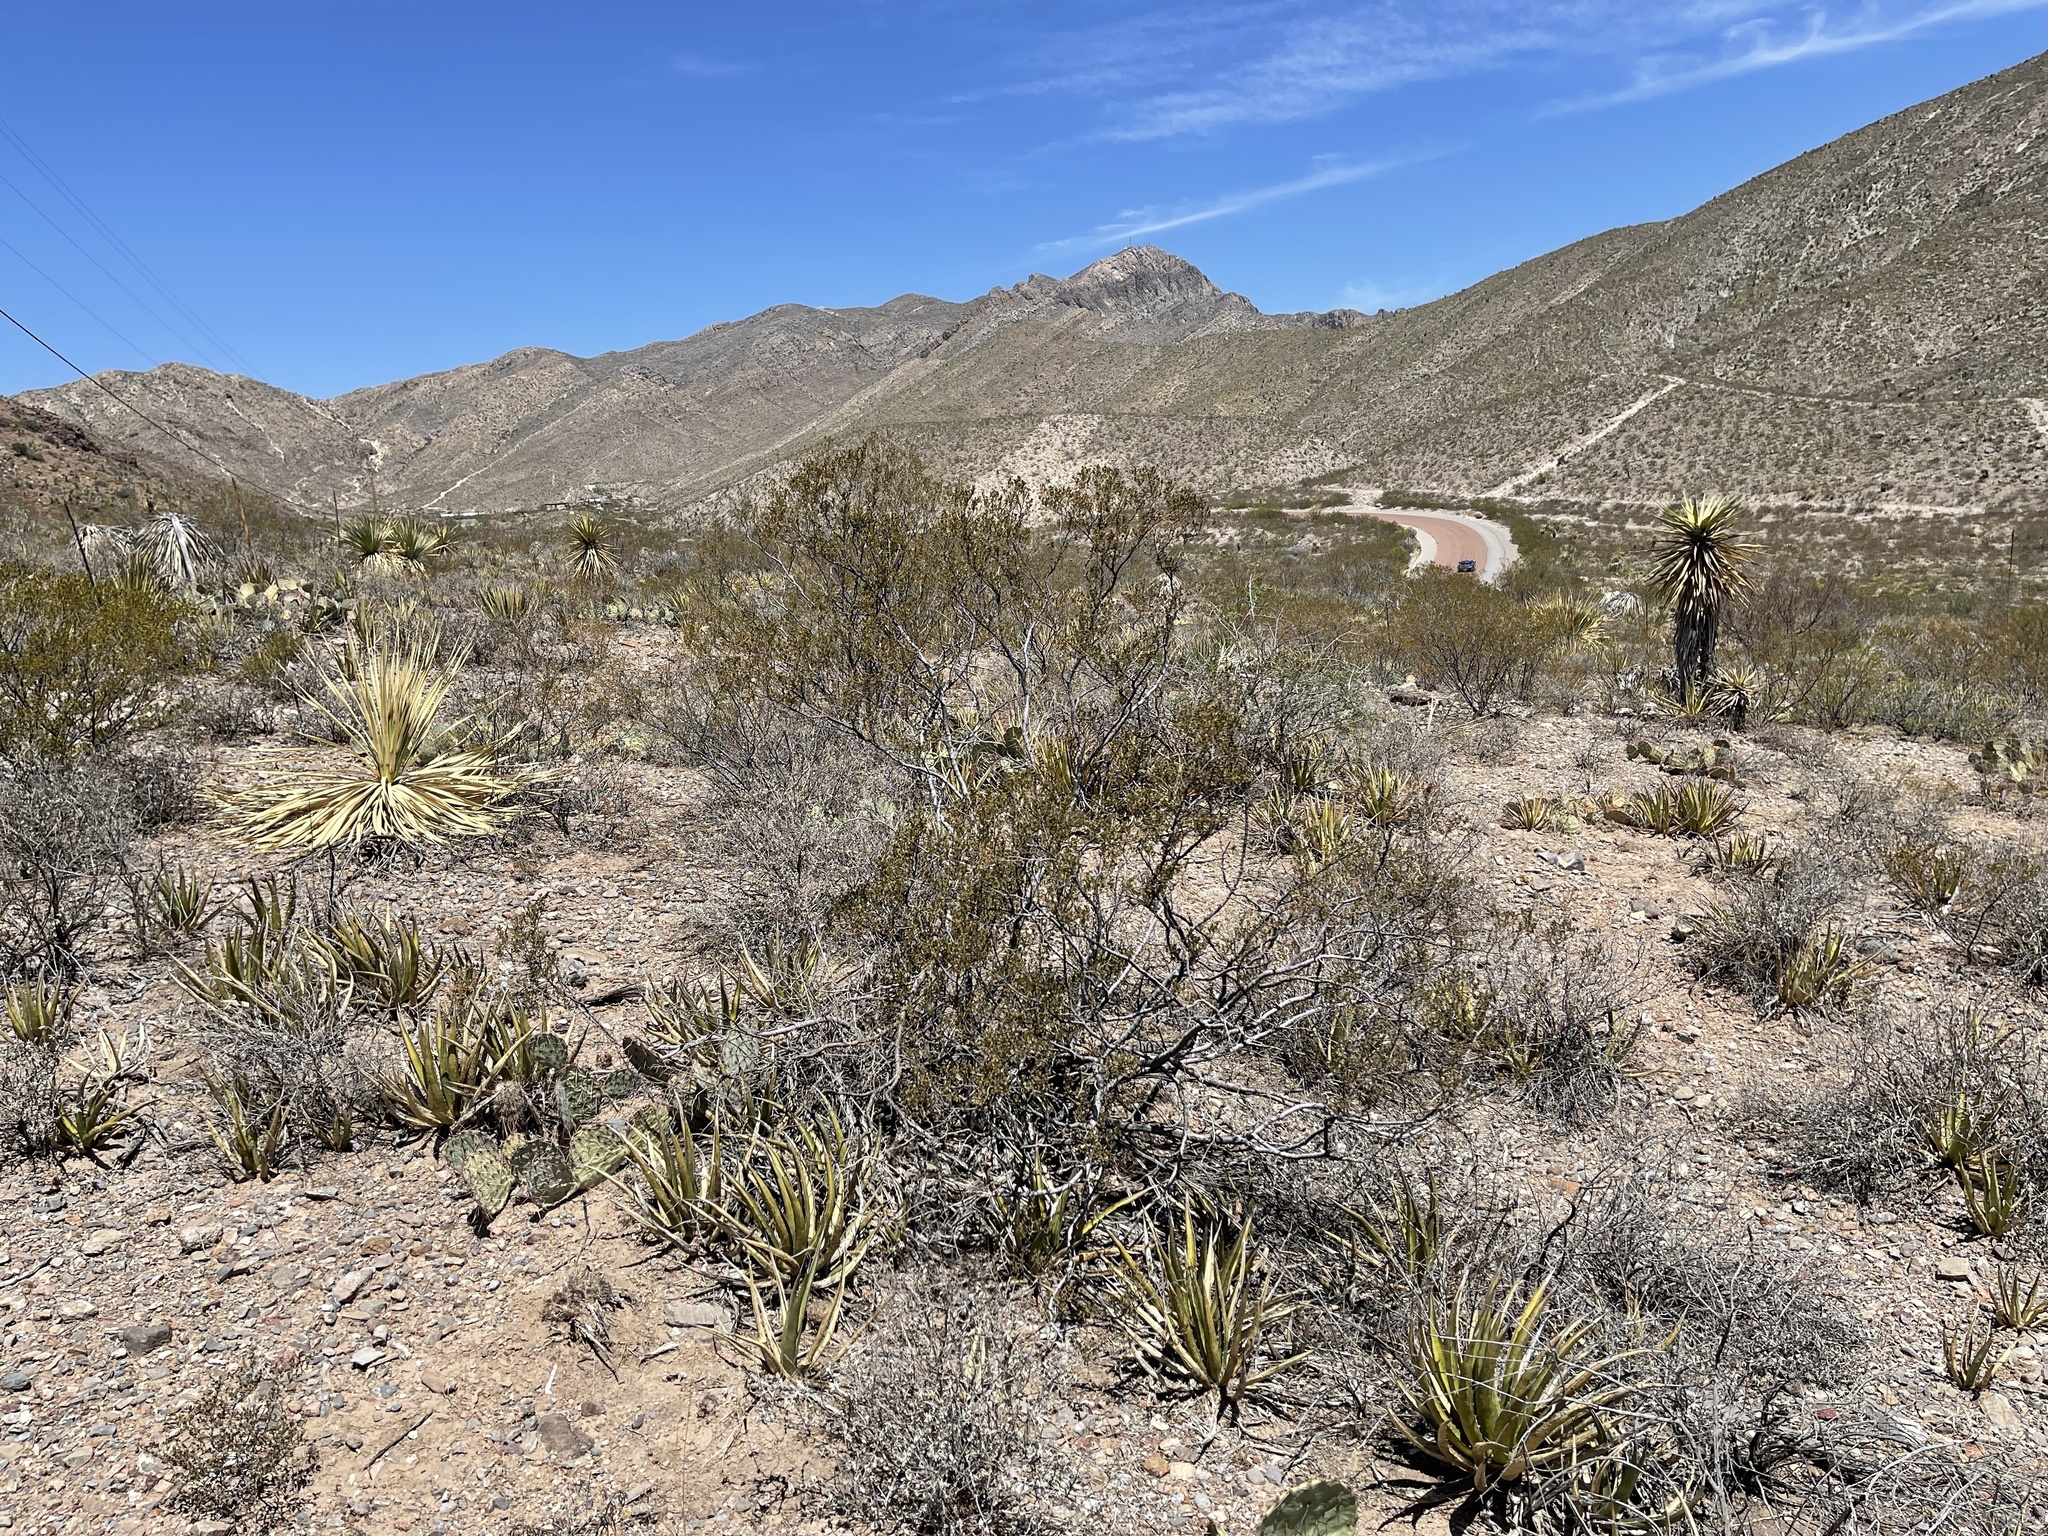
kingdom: Plantae
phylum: Tracheophyta
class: Magnoliopsida
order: Zygophyllales
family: Zygophyllaceae
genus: Larrea
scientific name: Larrea tridentata
